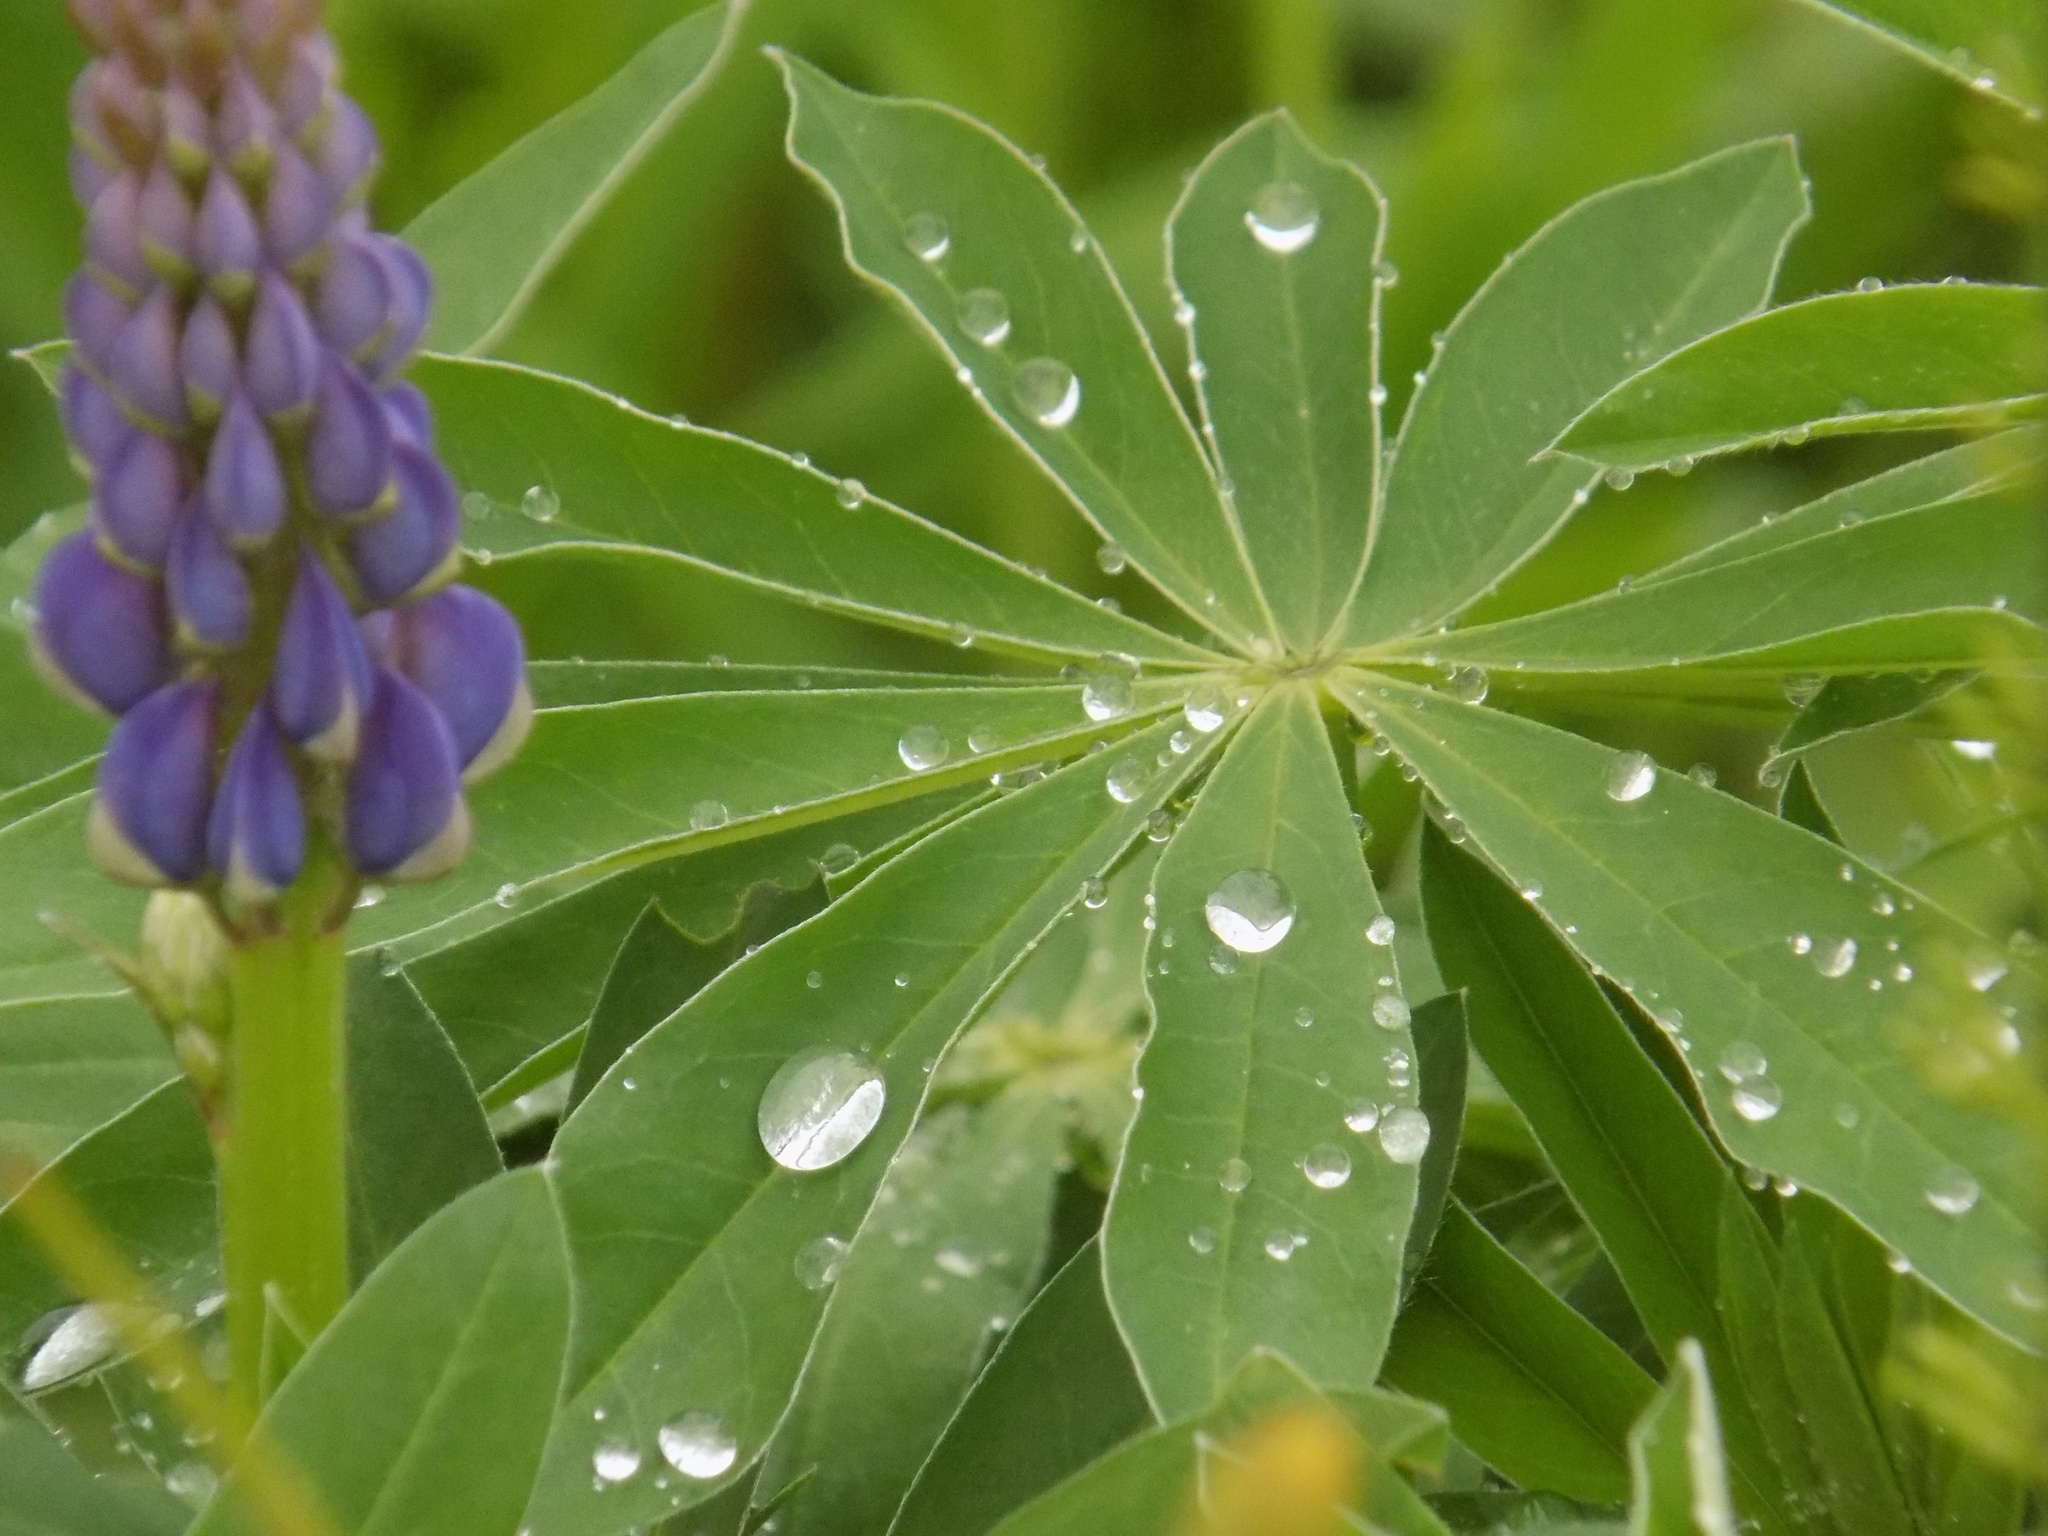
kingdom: Plantae
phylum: Tracheophyta
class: Magnoliopsida
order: Fabales
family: Fabaceae
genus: Lupinus
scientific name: Lupinus polyphyllus
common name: Garden lupin
